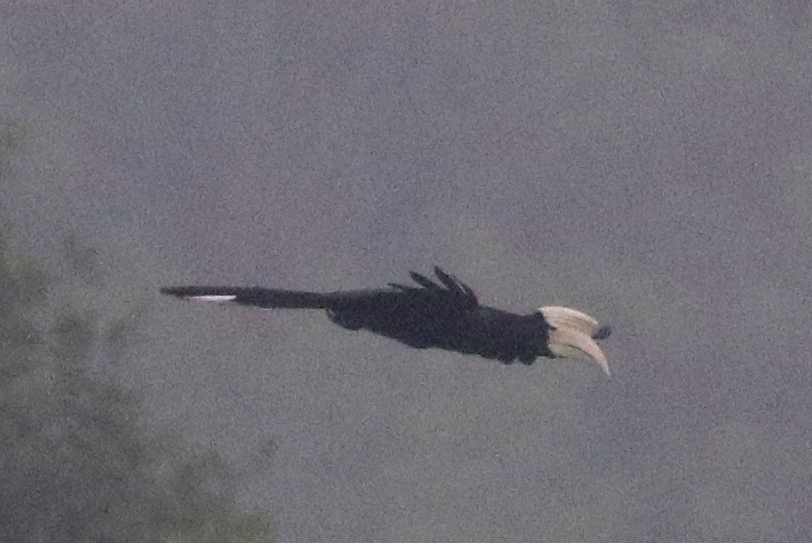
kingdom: Animalia
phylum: Chordata
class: Aves
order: Bucerotiformes
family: Bucerotidae
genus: Anthracoceros
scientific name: Anthracoceros malayanus
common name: Black hornbill
